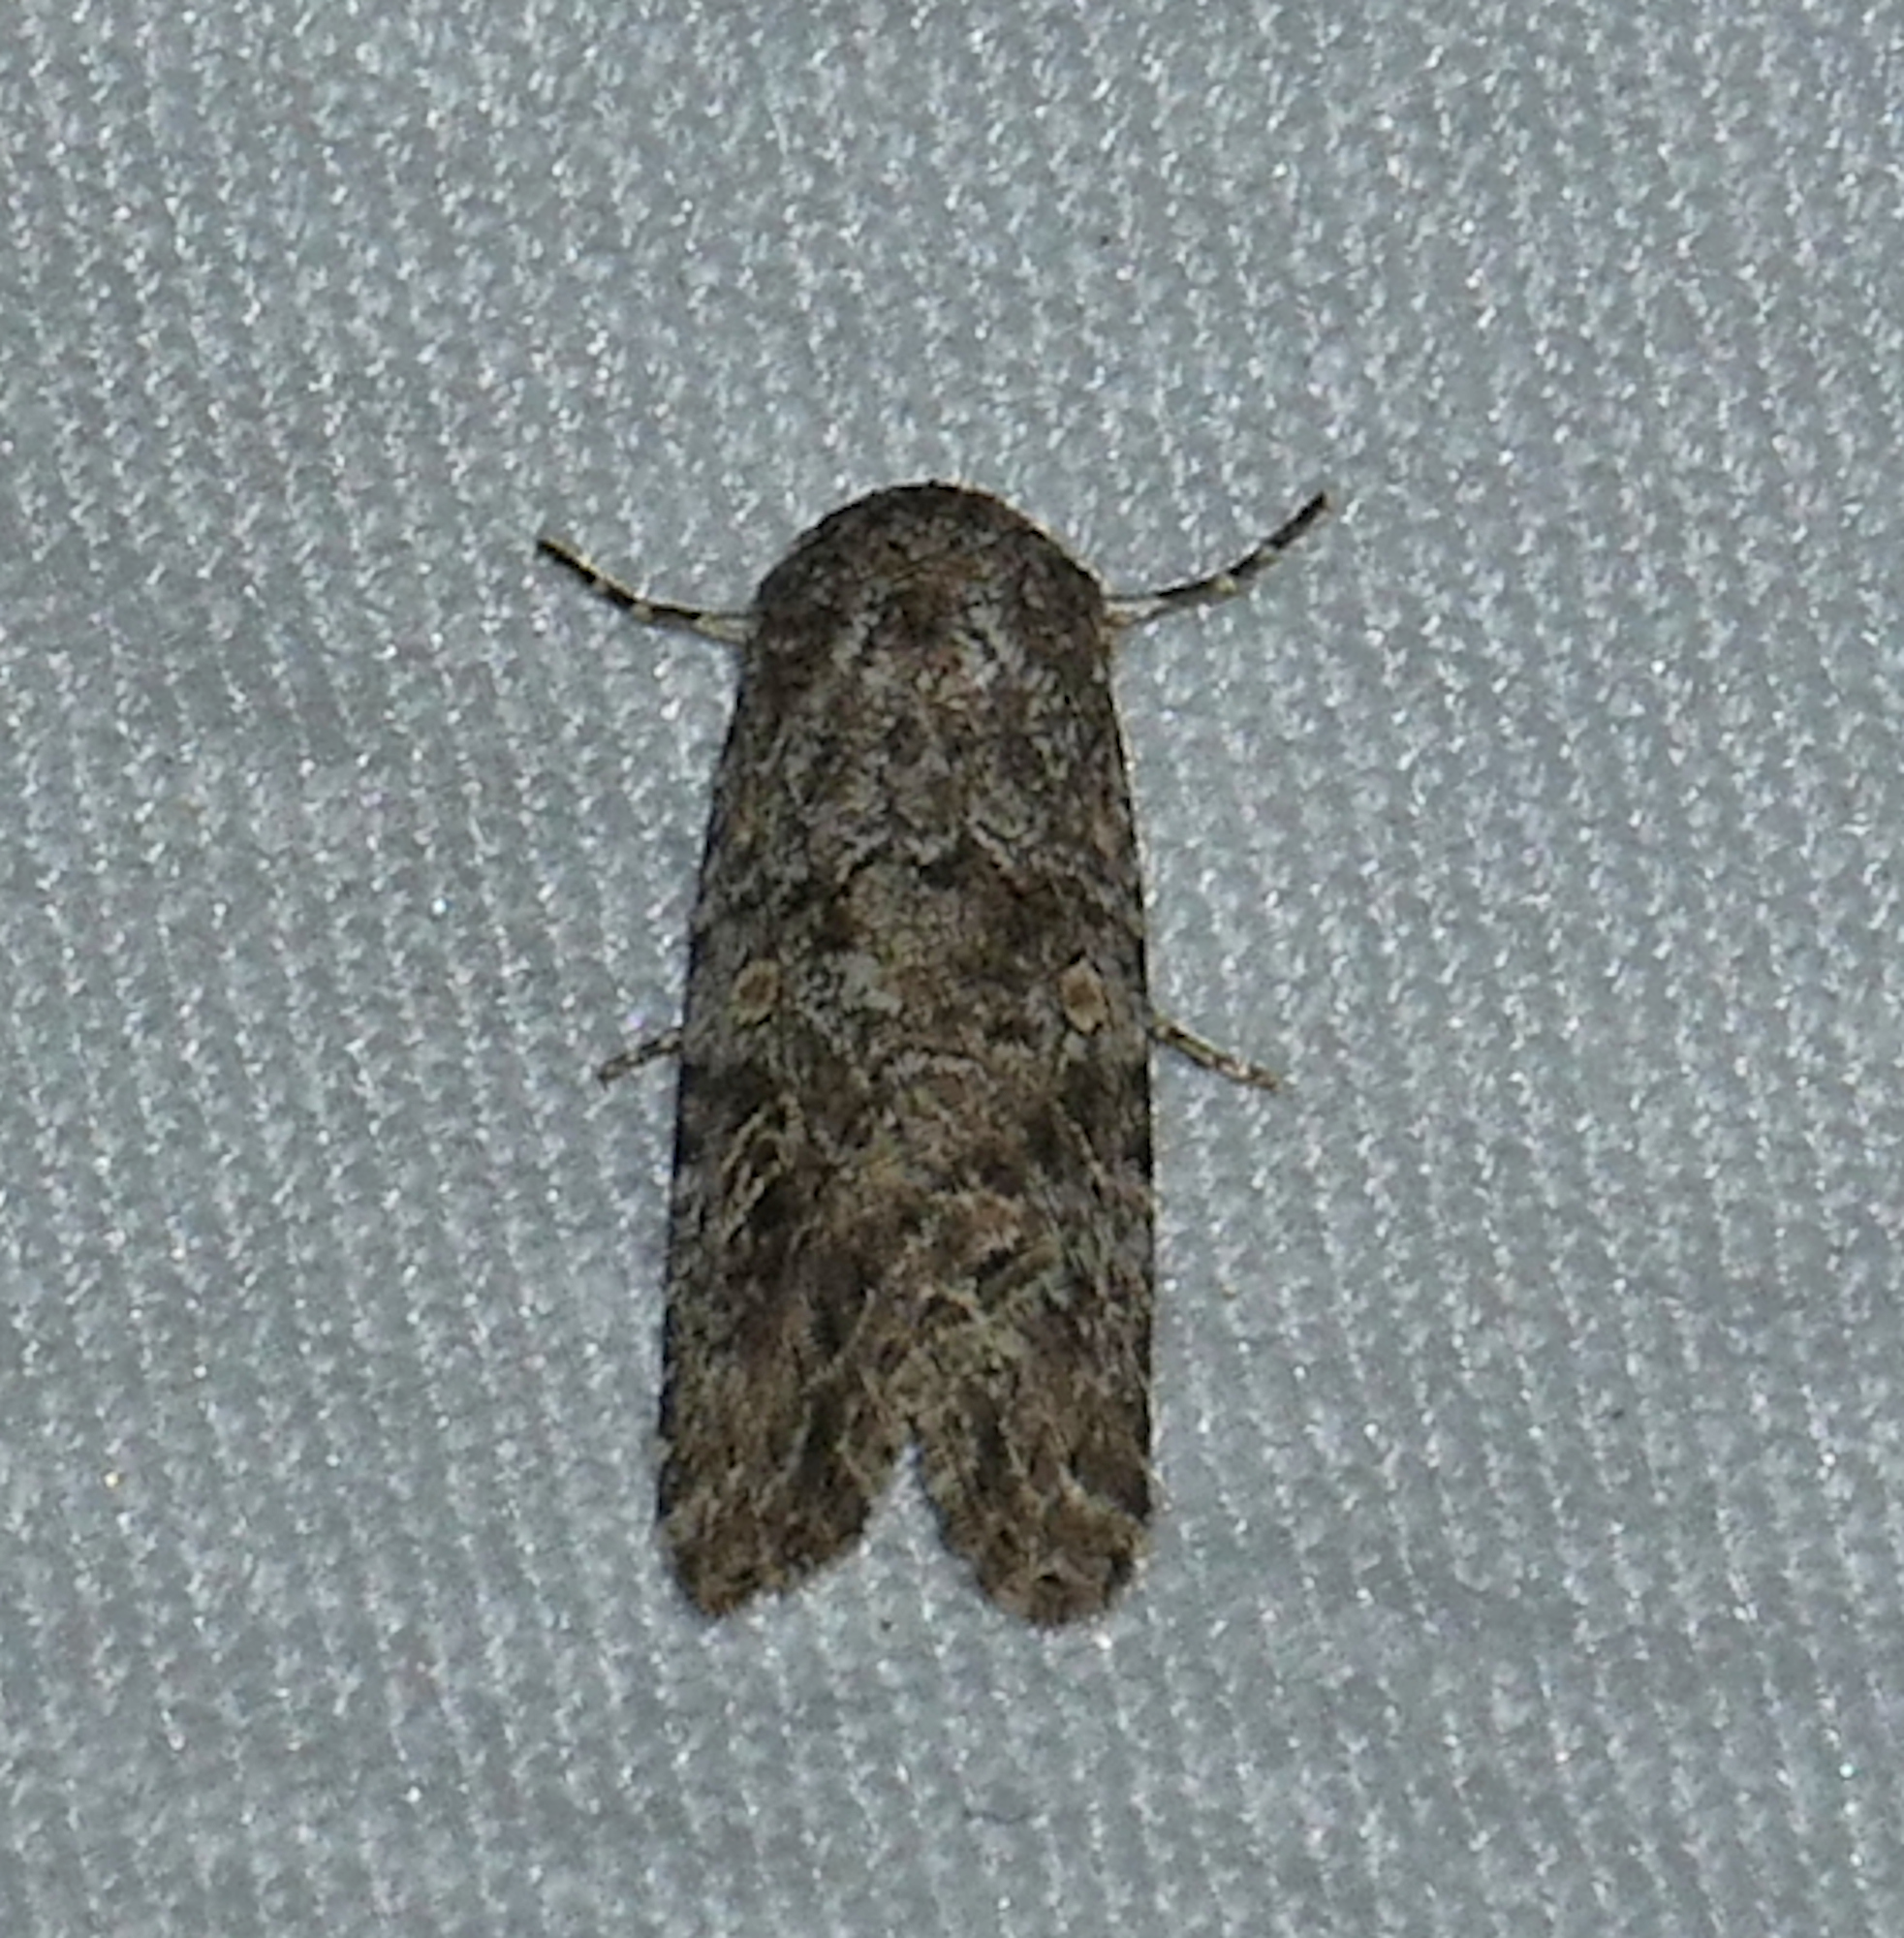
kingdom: Animalia
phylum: Arthropoda
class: Insecta
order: Lepidoptera
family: Noctuidae
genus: Spodoptera
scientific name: Spodoptera exigua
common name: Beet armyworm
